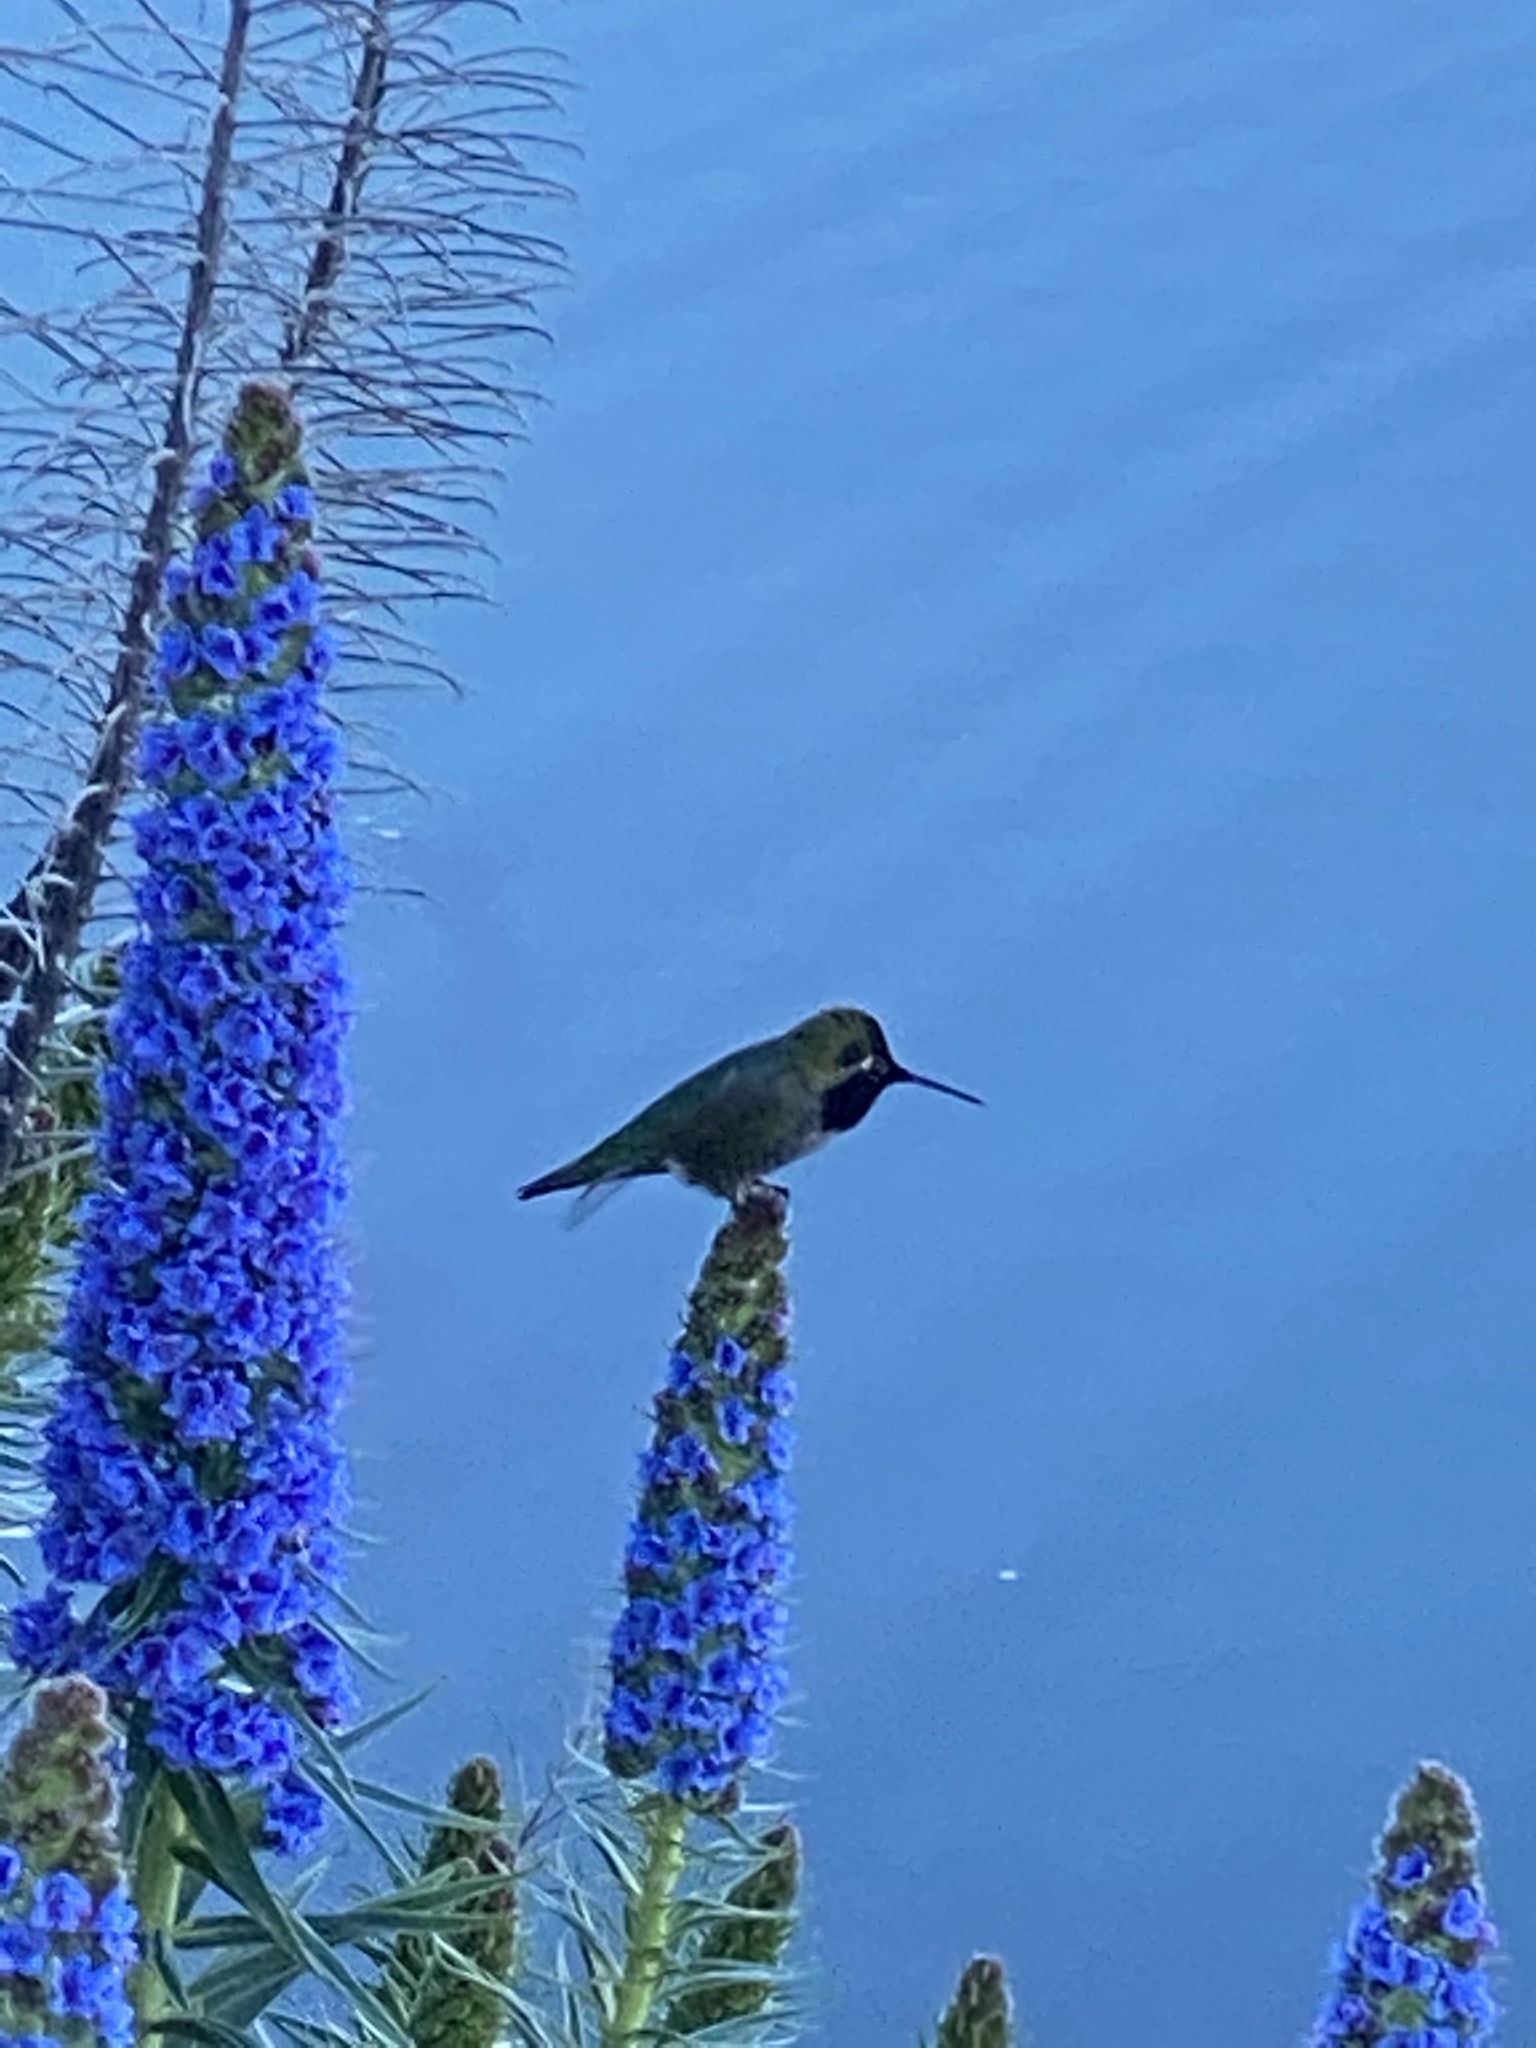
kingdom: Animalia
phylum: Chordata
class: Aves
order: Apodiformes
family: Trochilidae
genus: Calypte
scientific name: Calypte anna
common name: Anna's hummingbird
